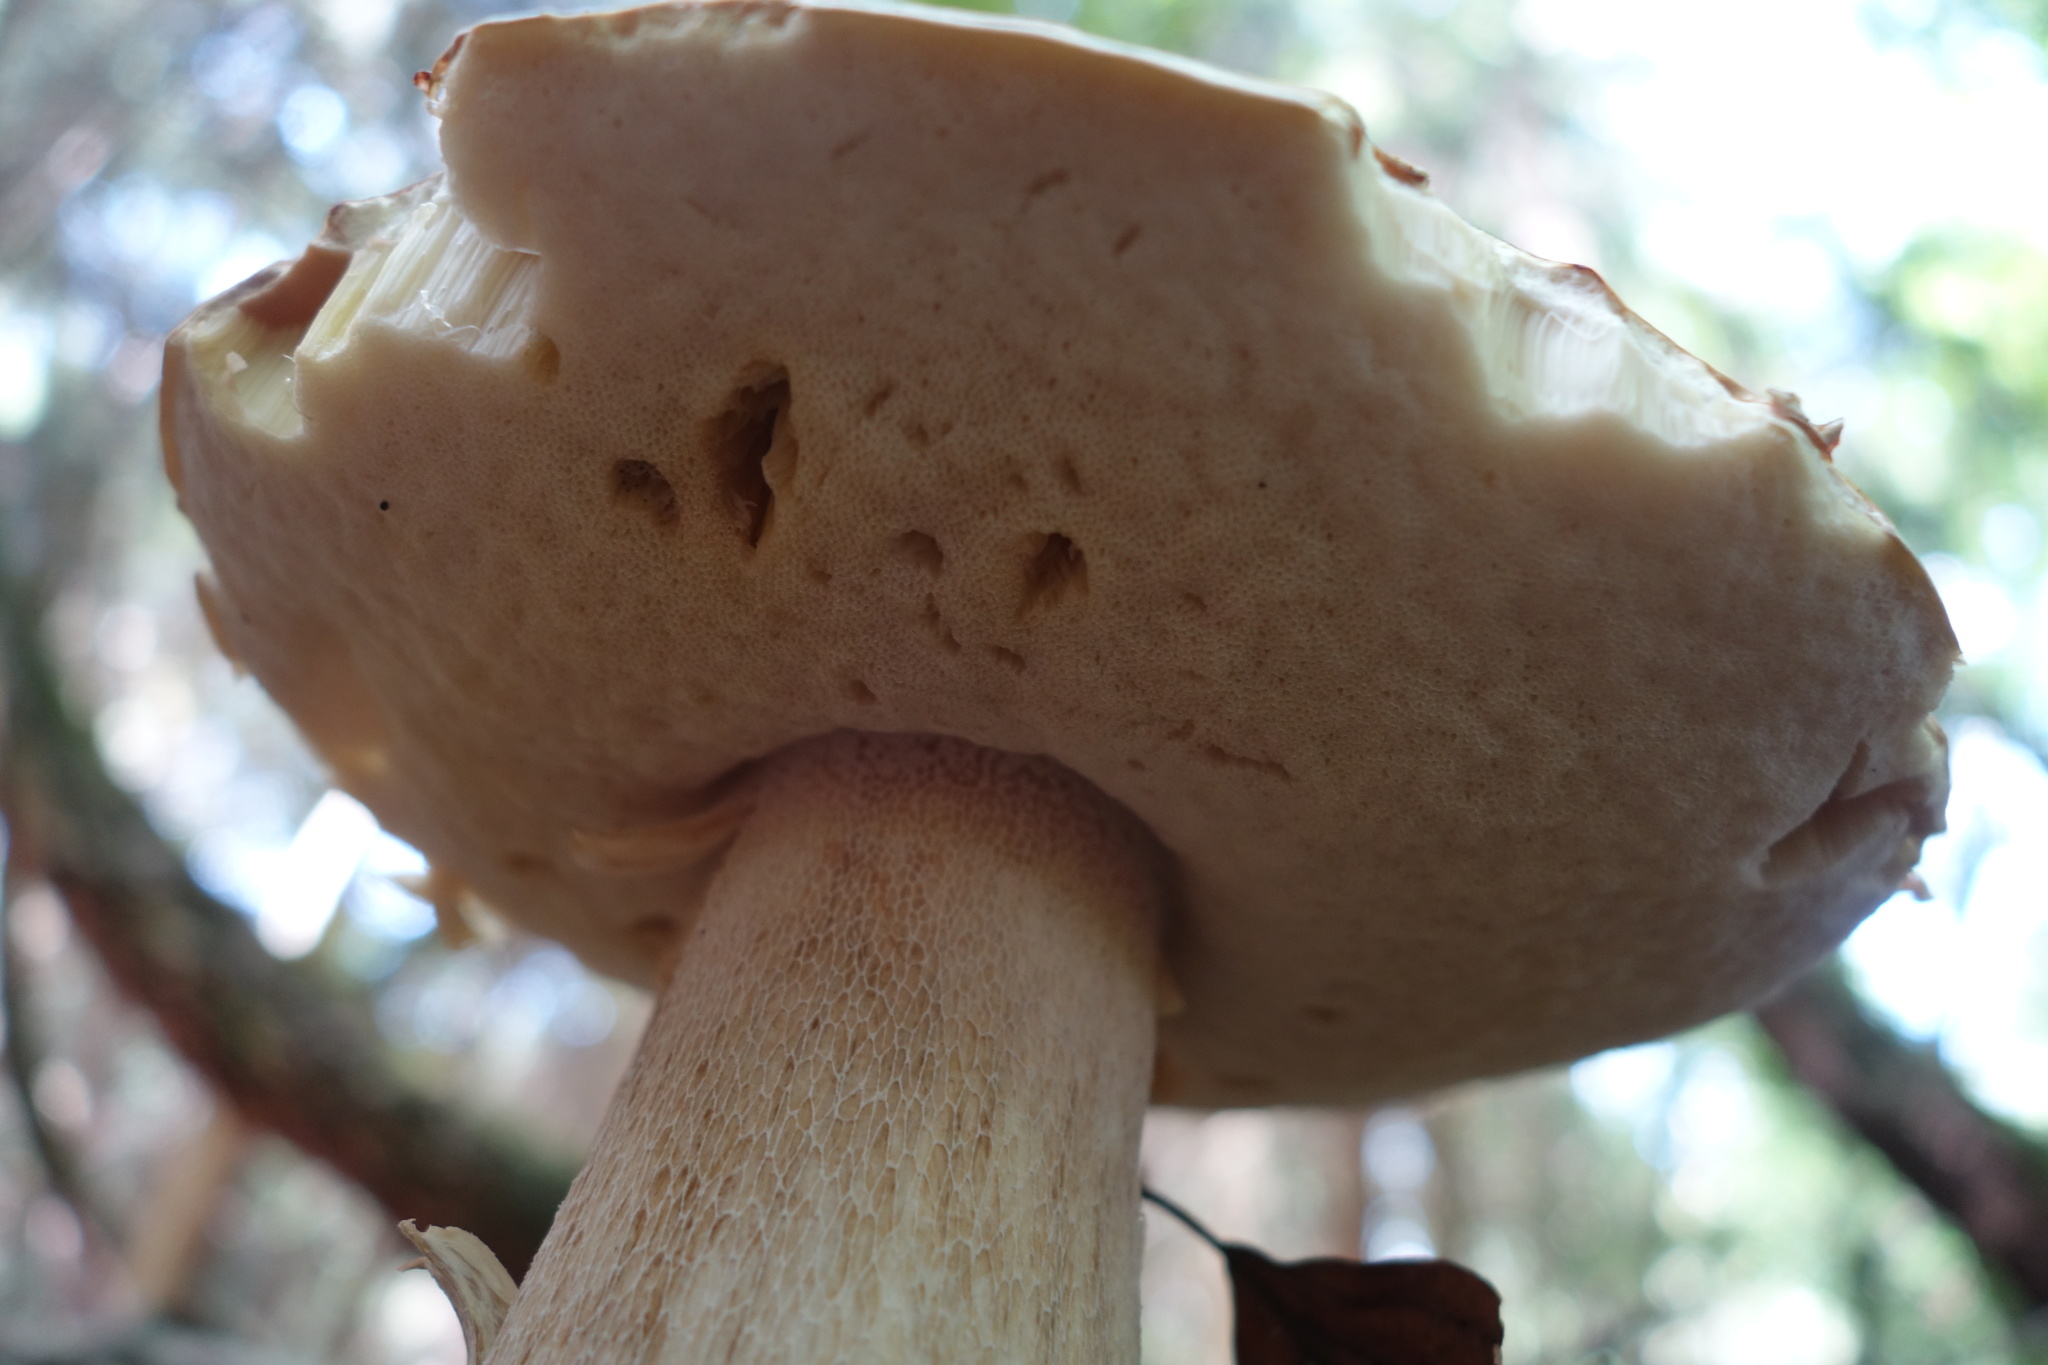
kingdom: Fungi
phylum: Basidiomycota
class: Agaricomycetes
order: Boletales
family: Boletaceae
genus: Boletus
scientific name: Boletus edulis
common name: Cep
